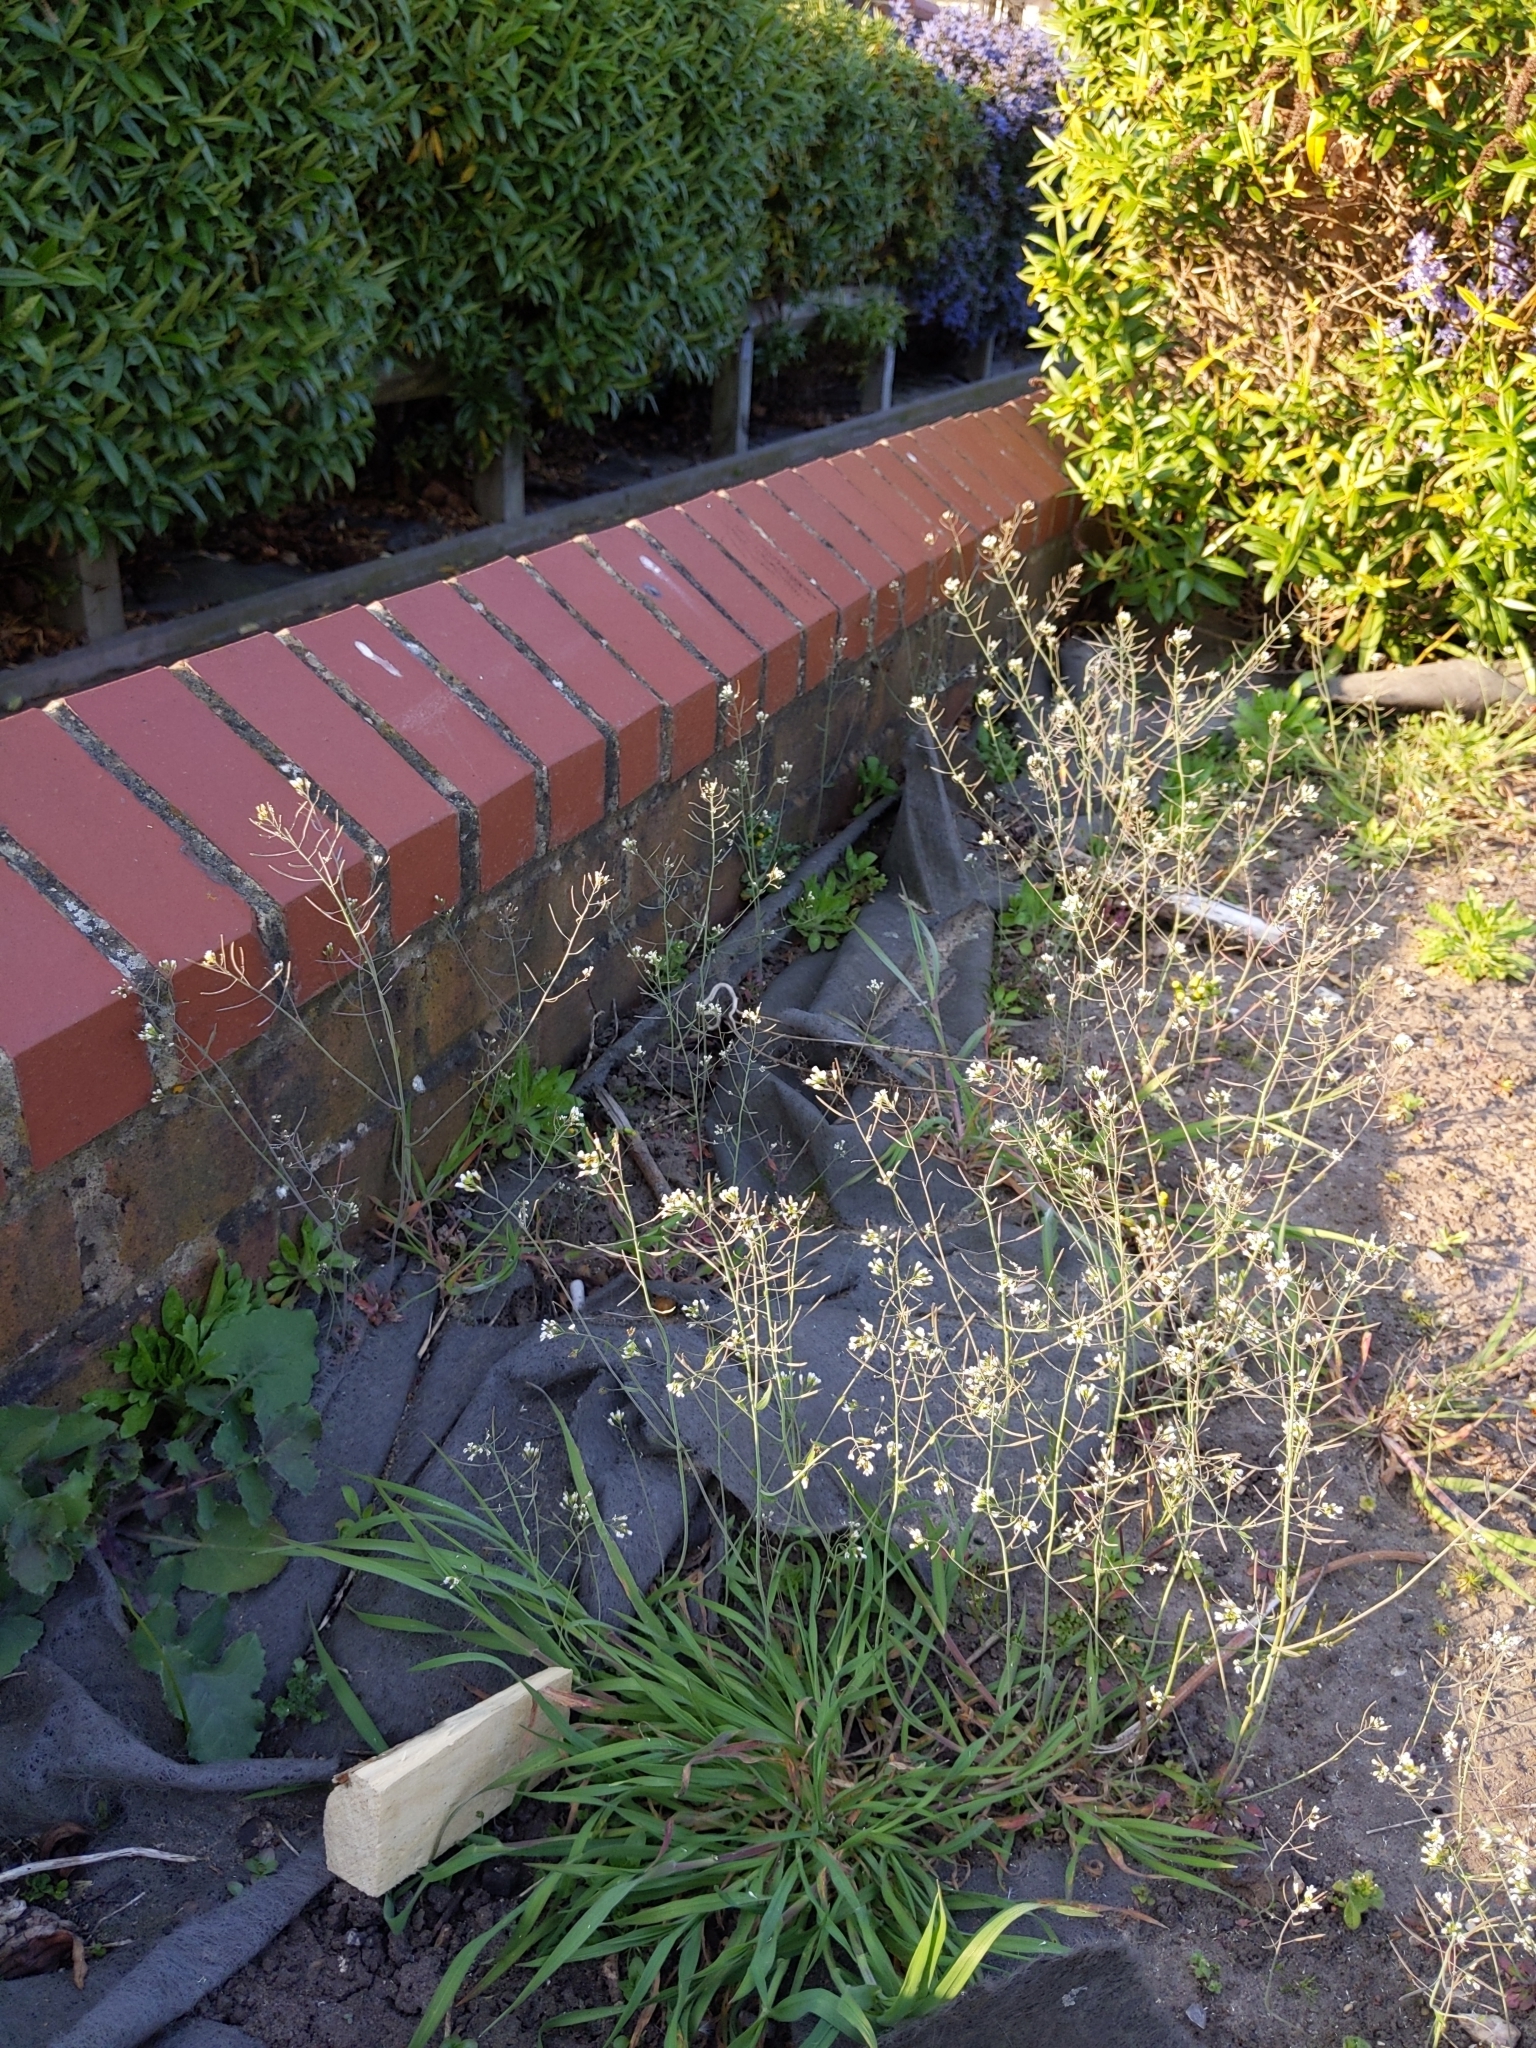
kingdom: Plantae
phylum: Tracheophyta
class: Magnoliopsida
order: Brassicales
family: Brassicaceae
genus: Arabidopsis
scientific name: Arabidopsis thaliana
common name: Thale cress
